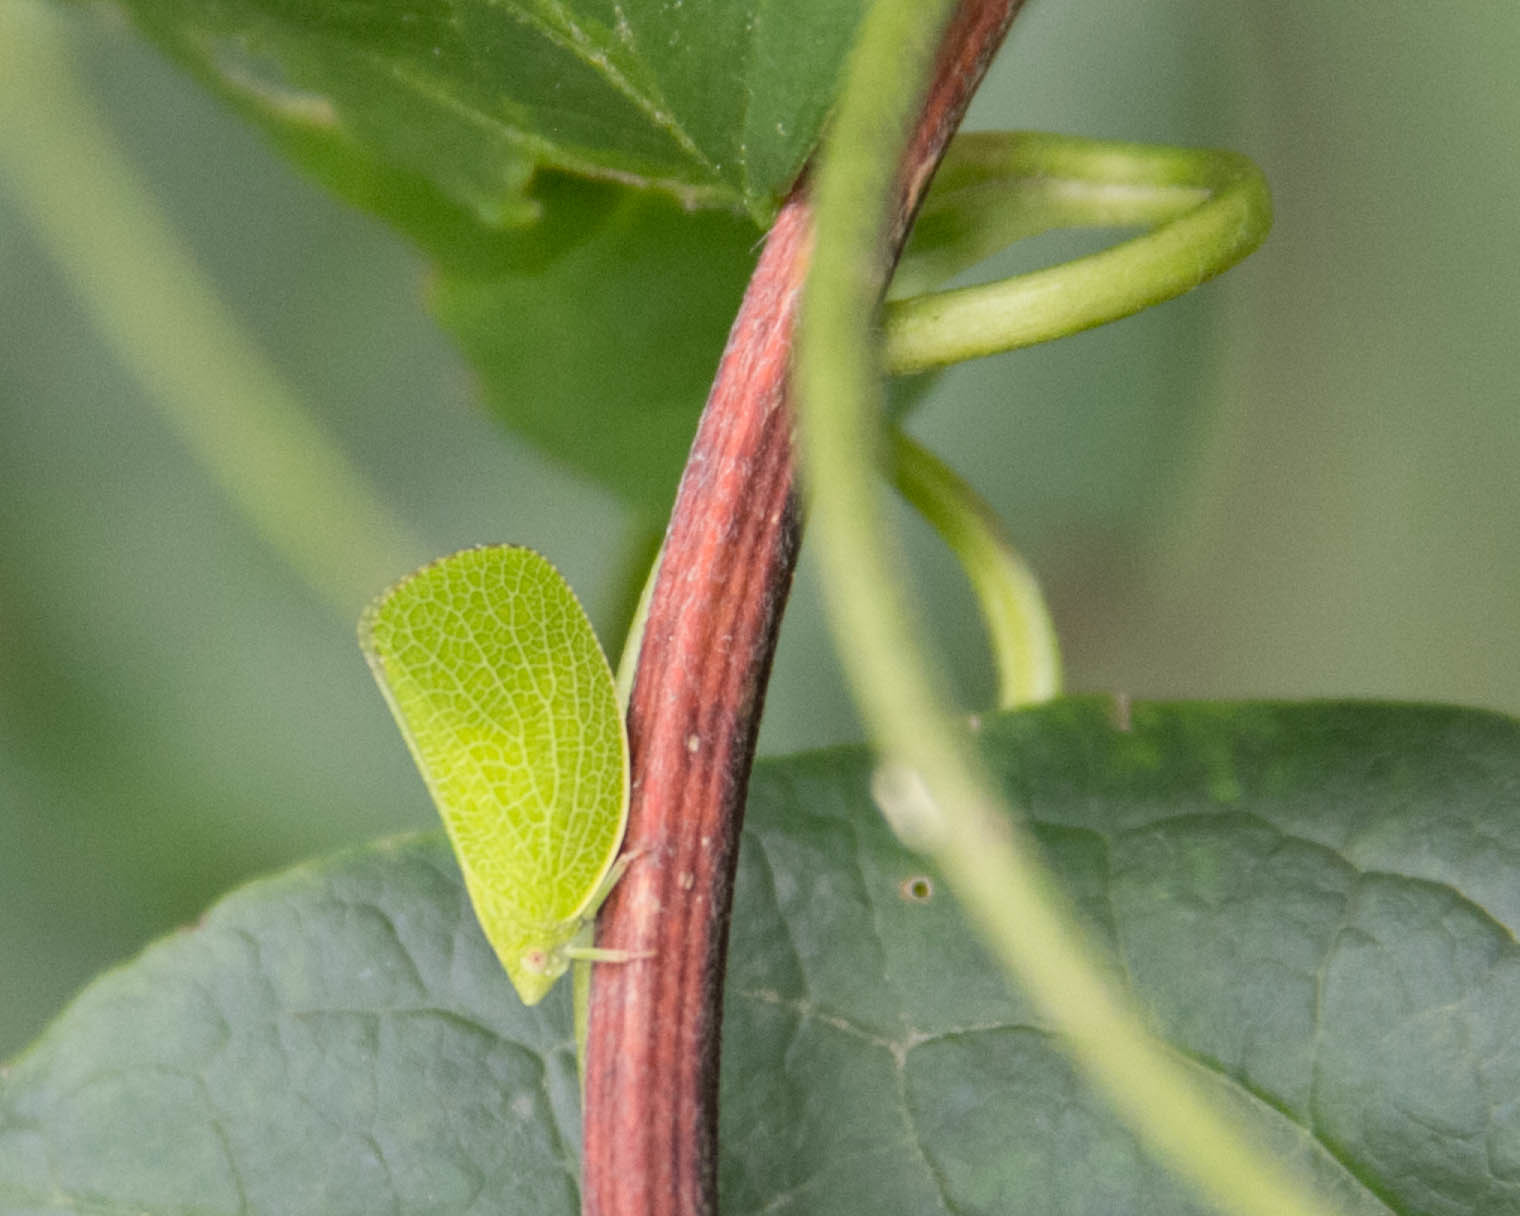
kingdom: Animalia
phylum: Arthropoda
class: Insecta
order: Hemiptera
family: Acanaloniidae
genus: Acanalonia
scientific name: Acanalonia conica
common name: Green cone-headed planthopper
